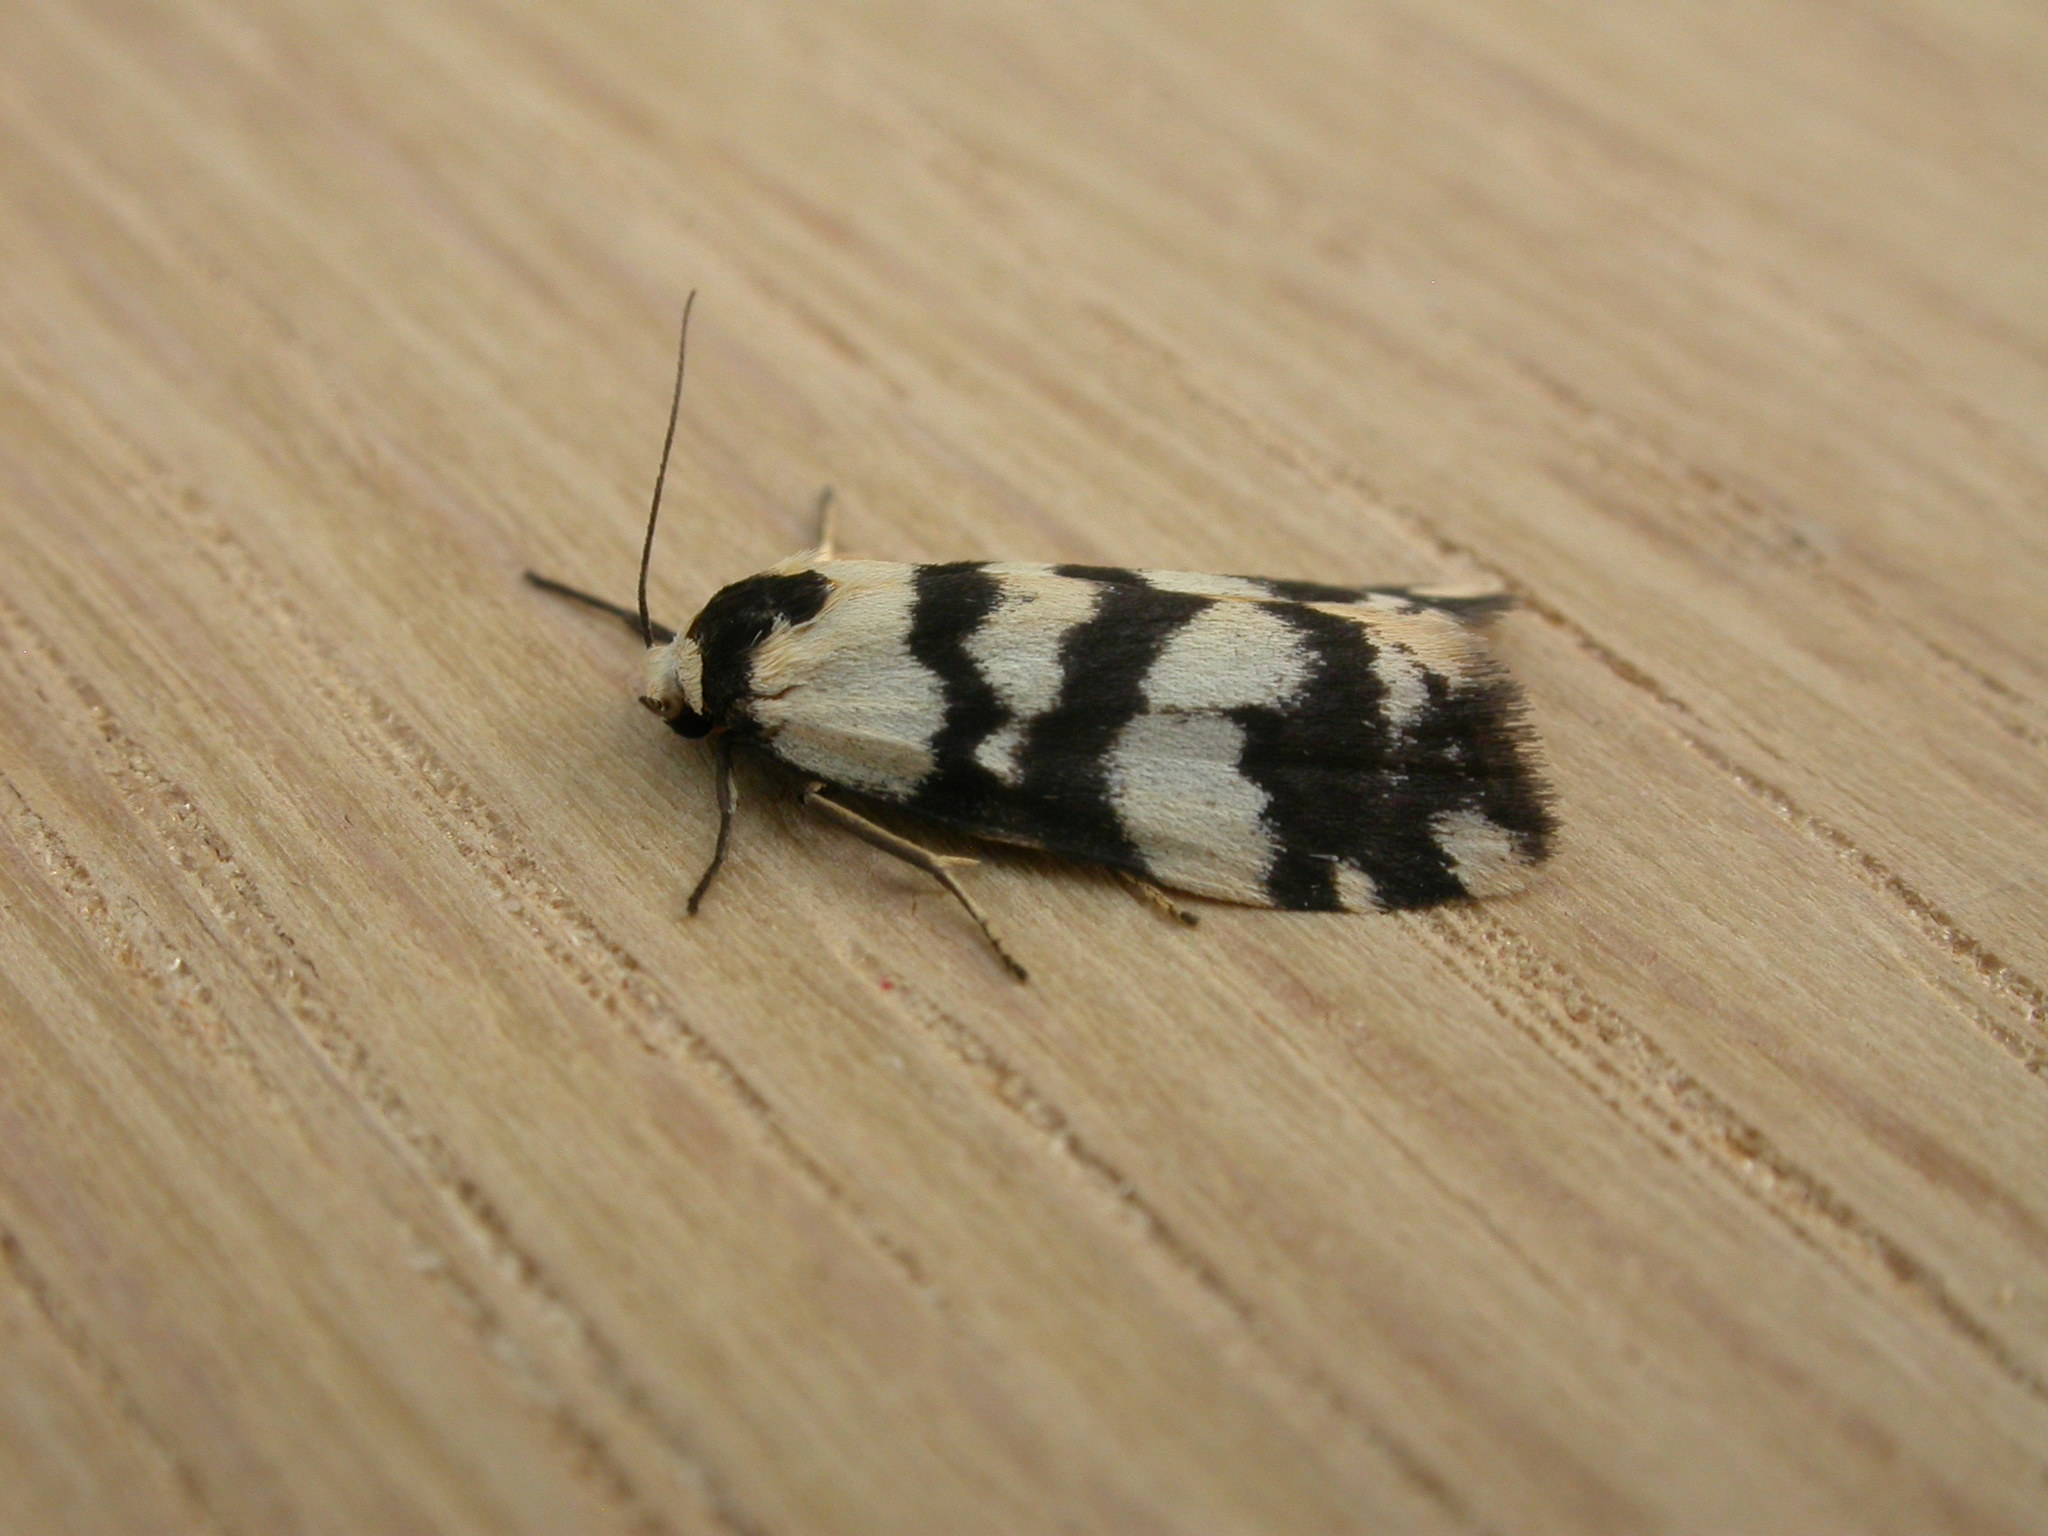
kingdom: Animalia
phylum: Arthropoda
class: Insecta
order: Lepidoptera
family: Erebidae
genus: Thallarcha
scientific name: Thallarcha trissomochla
